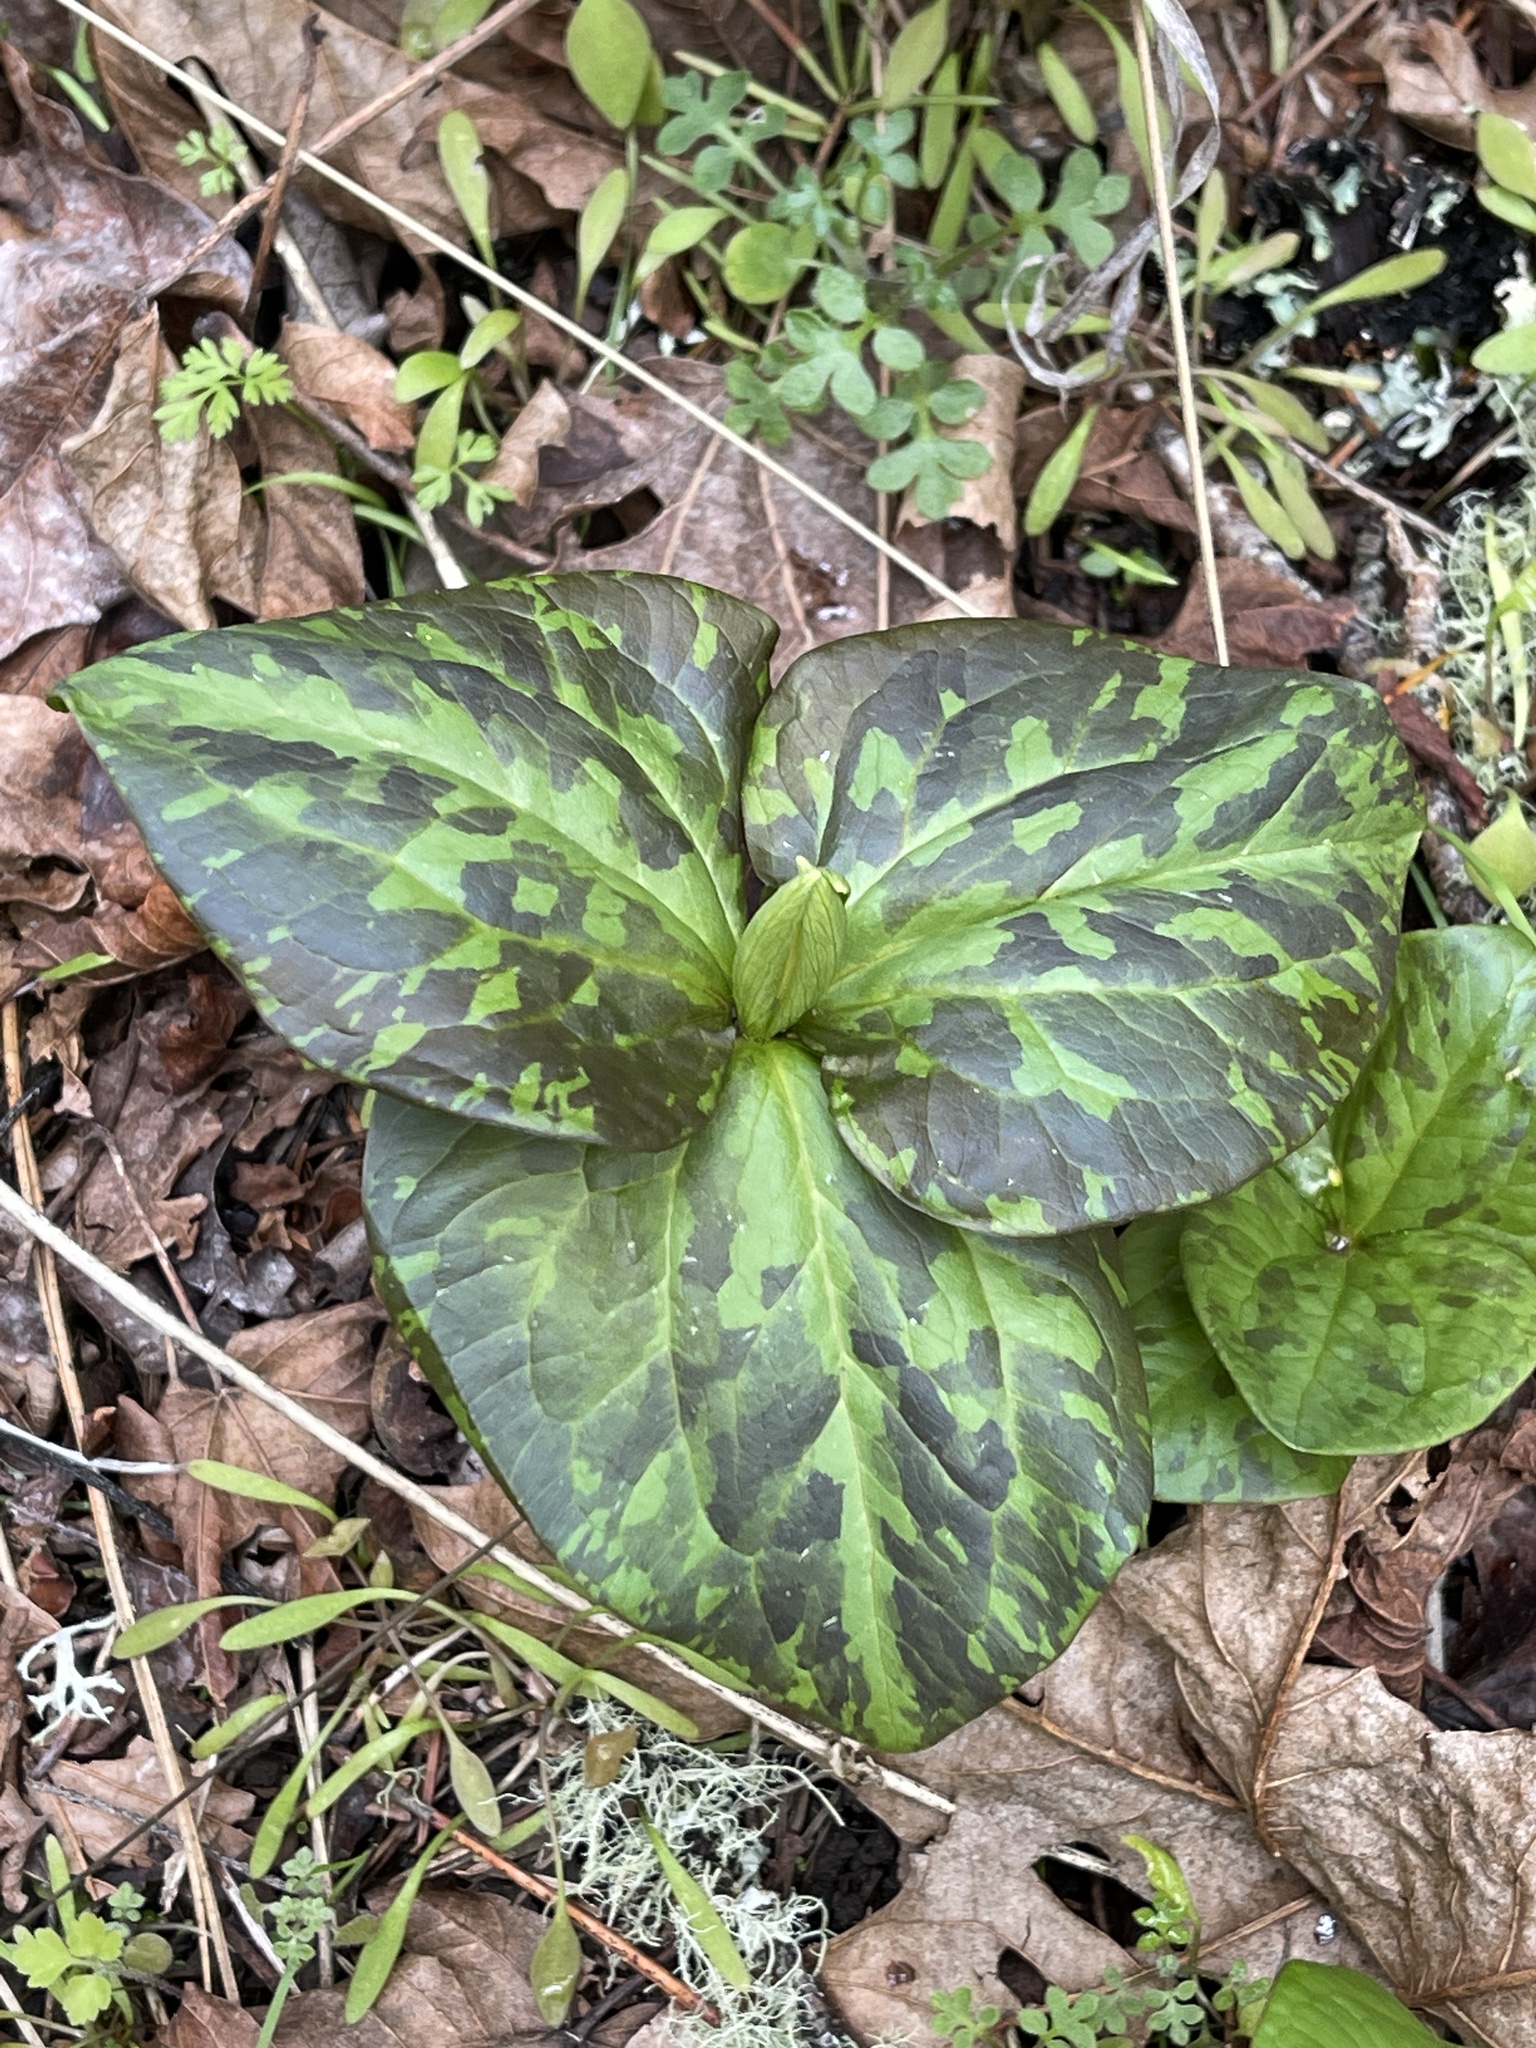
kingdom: Plantae
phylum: Tracheophyta
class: Liliopsida
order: Liliales
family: Melanthiaceae
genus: Trillium
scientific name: Trillium albidum
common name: Freeman's trillium
